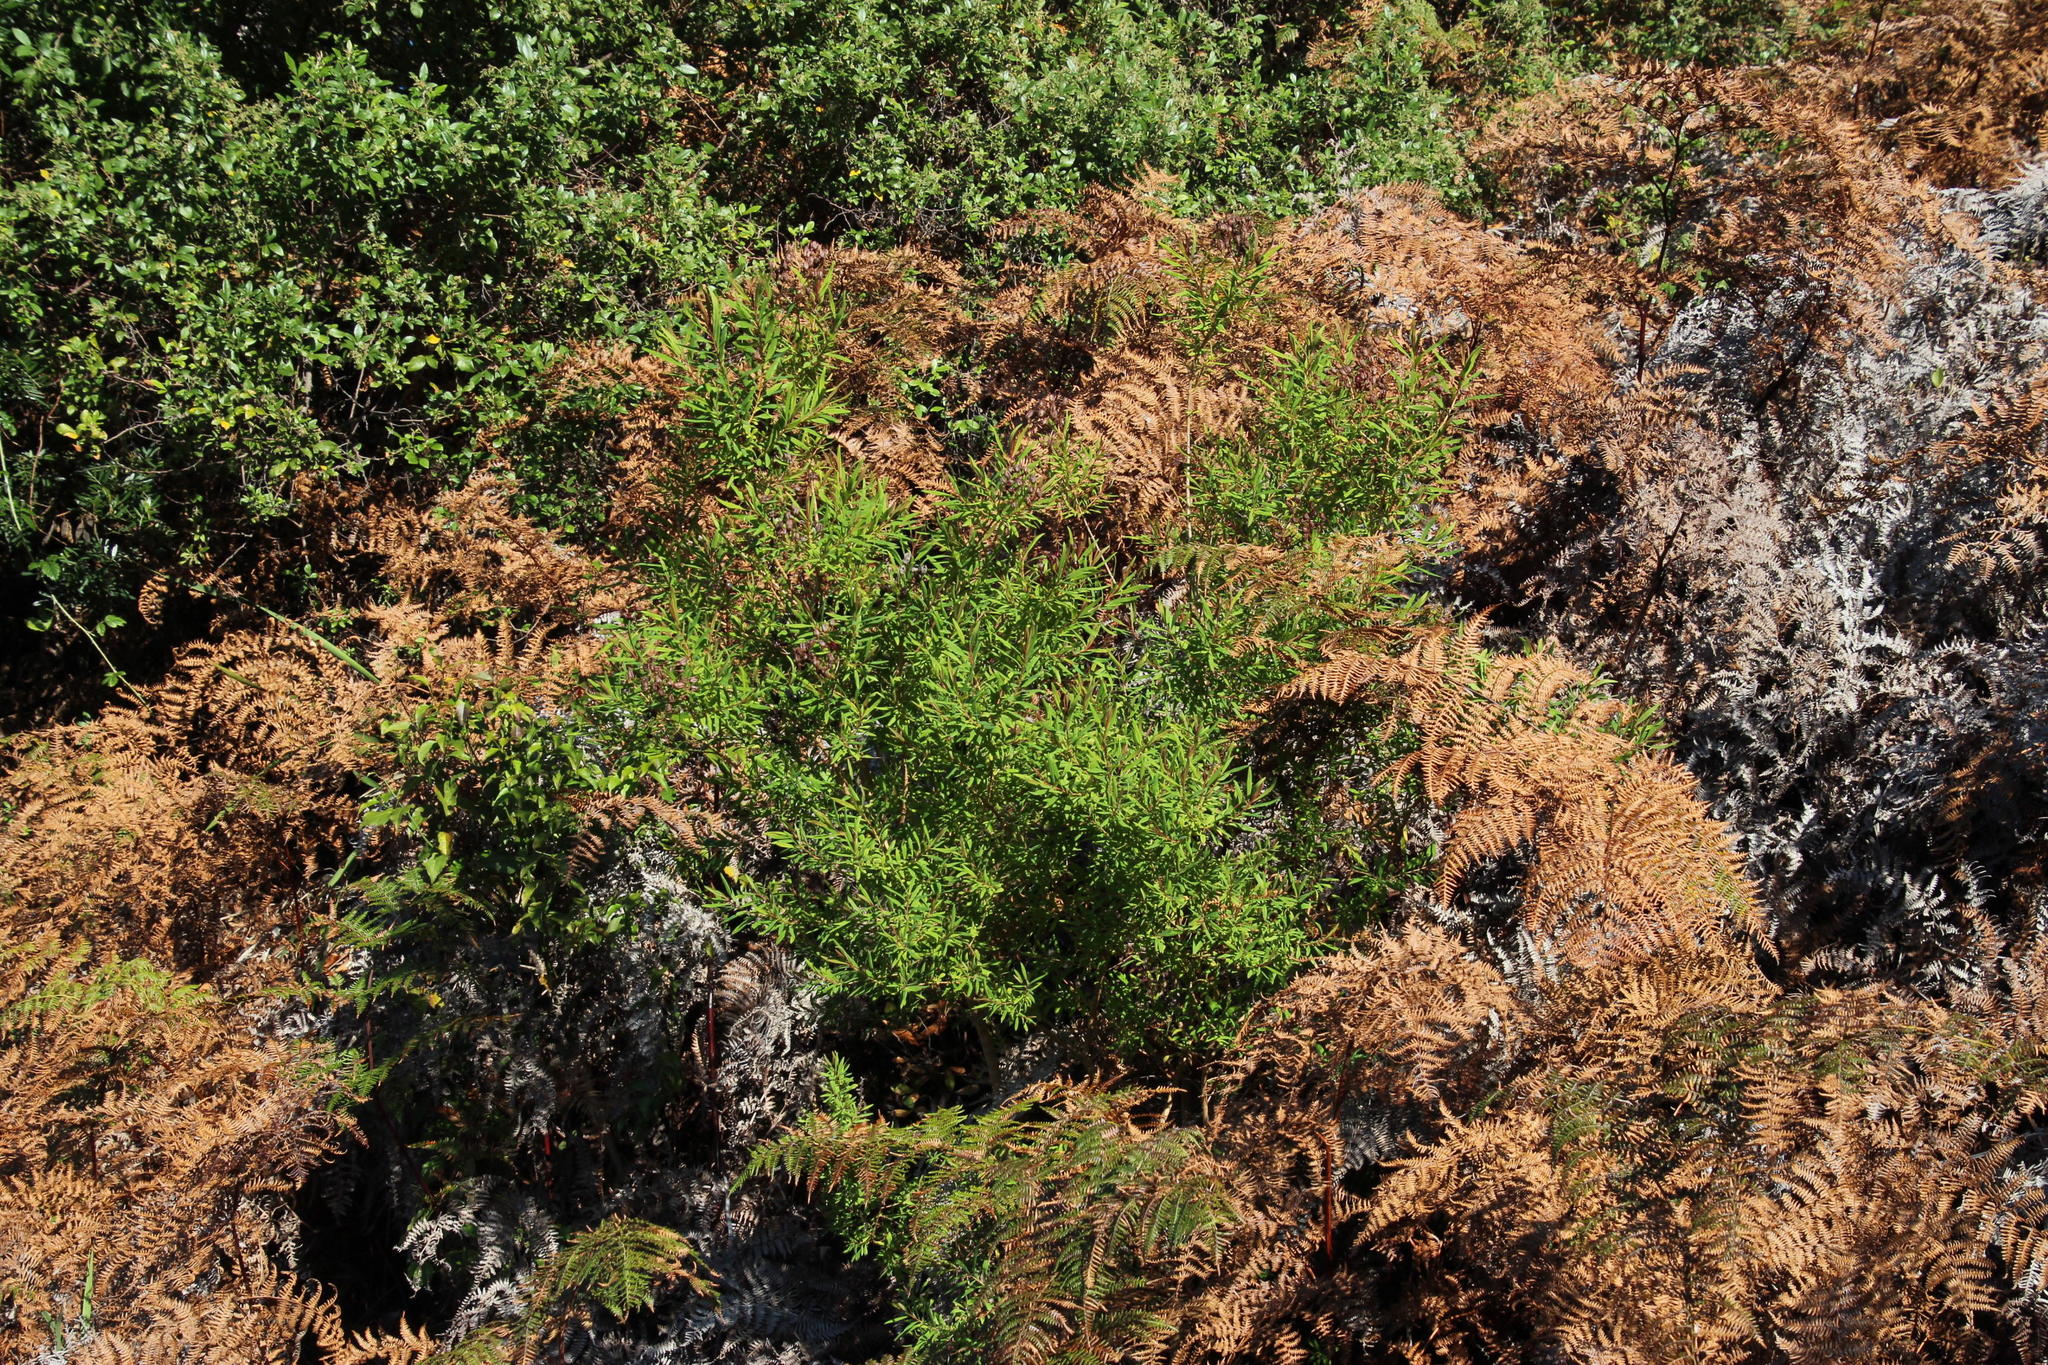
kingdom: Plantae
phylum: Tracheophyta
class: Magnoliopsida
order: Malpighiales
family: Hypericaceae
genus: Hypericum
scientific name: Hypericum canariense
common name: Canary island st. johnswort
